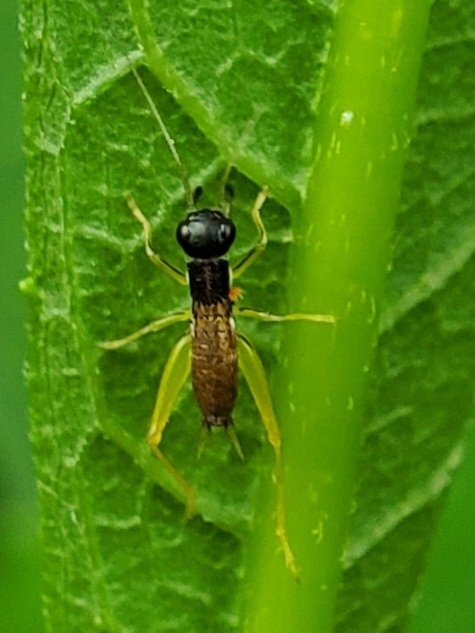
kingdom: Animalia
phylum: Arthropoda
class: Insecta
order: Orthoptera
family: Trigonidiidae
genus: Phyllopalpus
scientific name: Phyllopalpus pulchellus
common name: Handsome trig
